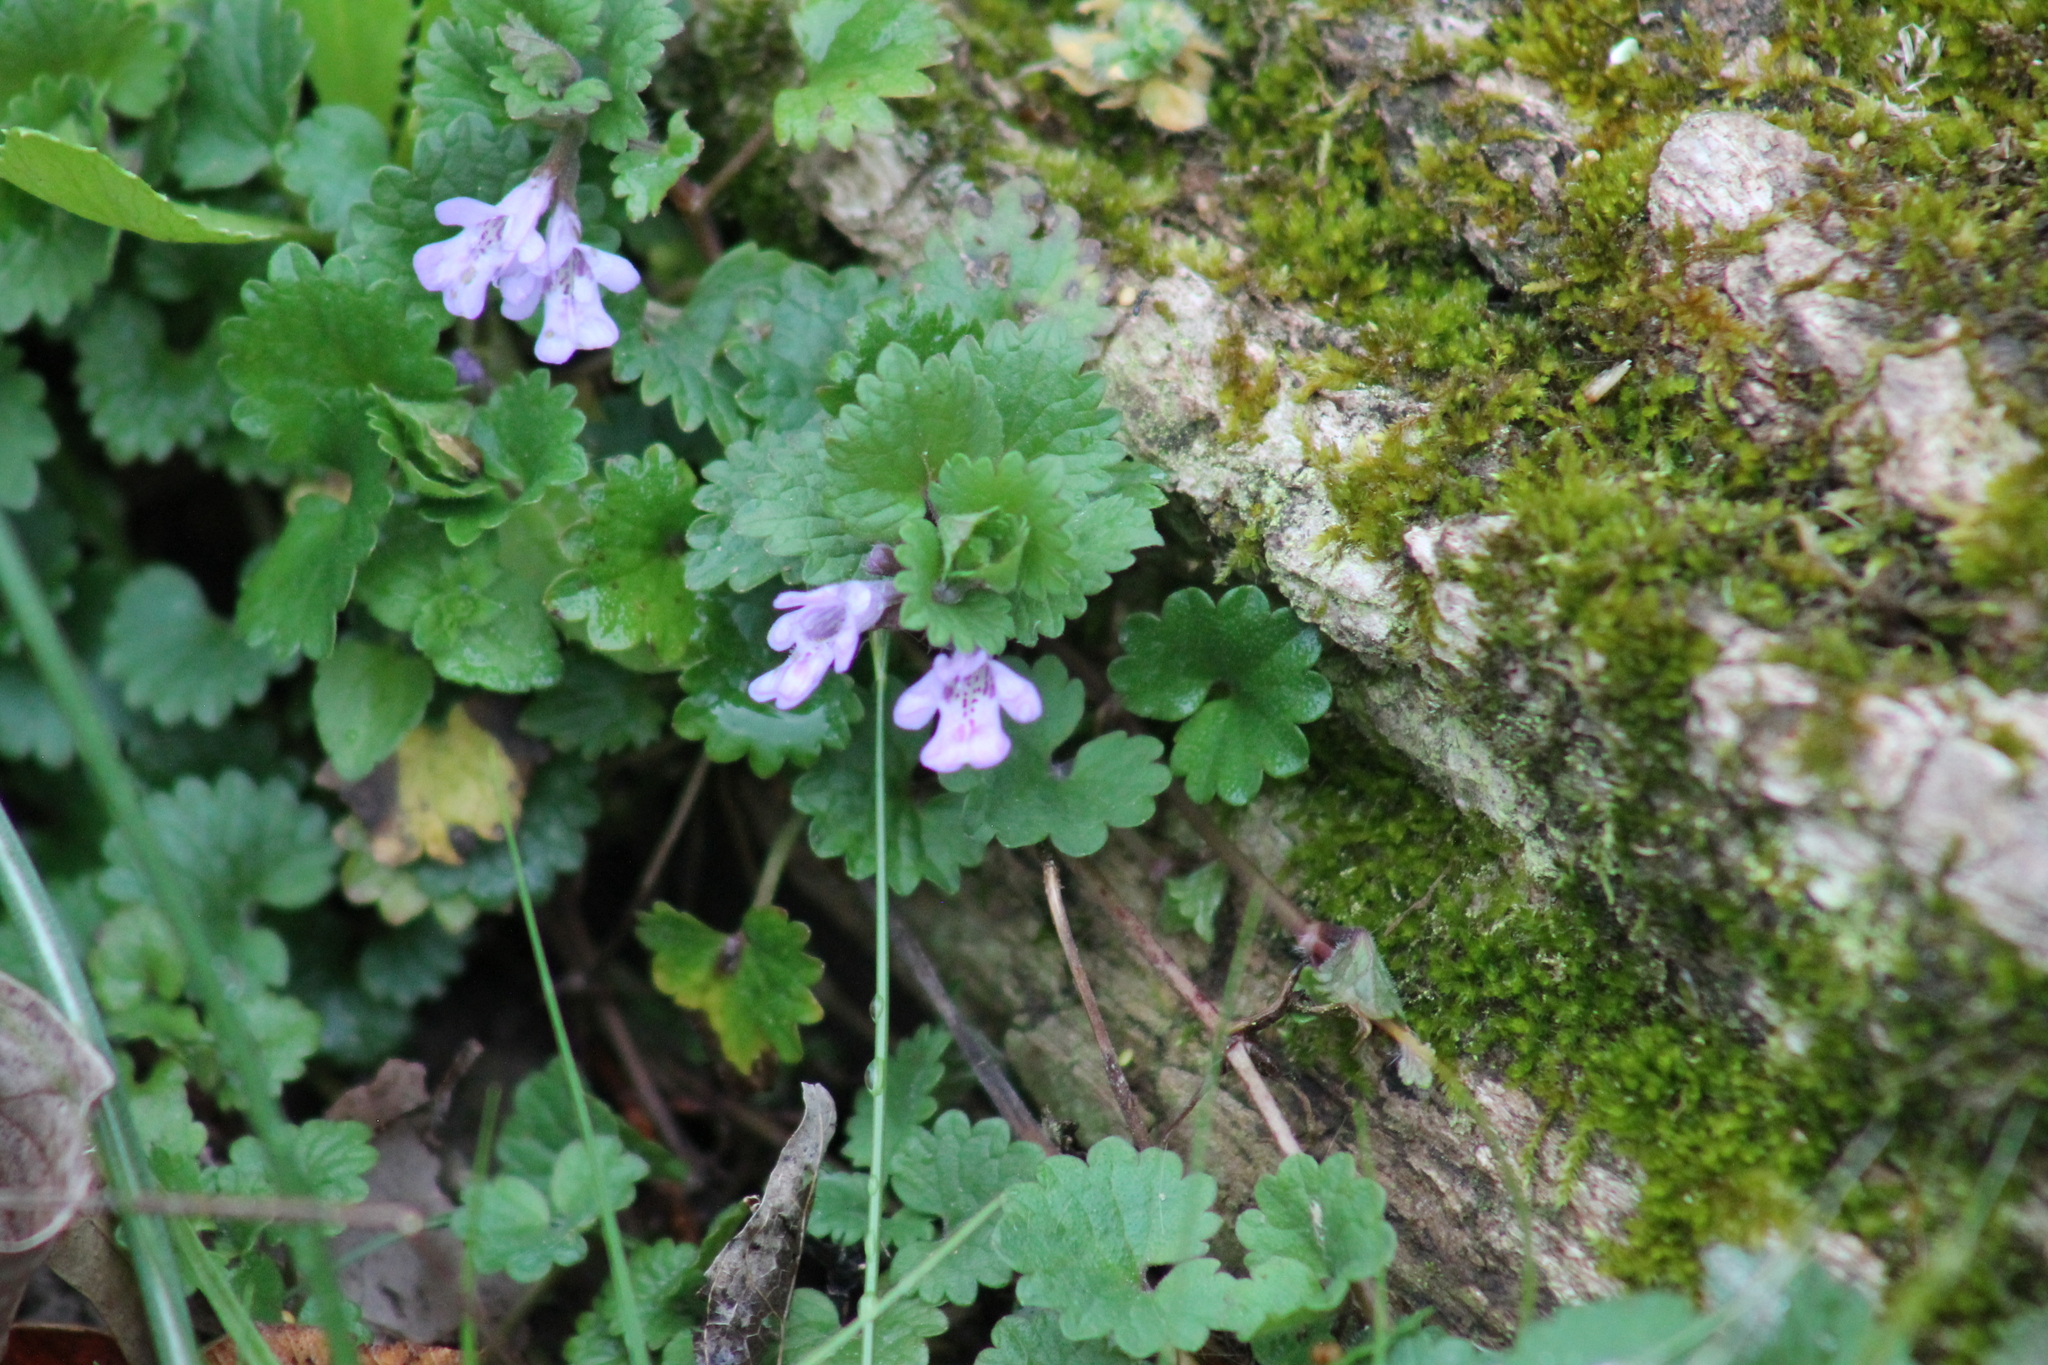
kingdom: Plantae
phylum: Tracheophyta
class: Magnoliopsida
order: Lamiales
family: Lamiaceae
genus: Glechoma
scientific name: Glechoma hederacea
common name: Ground ivy
